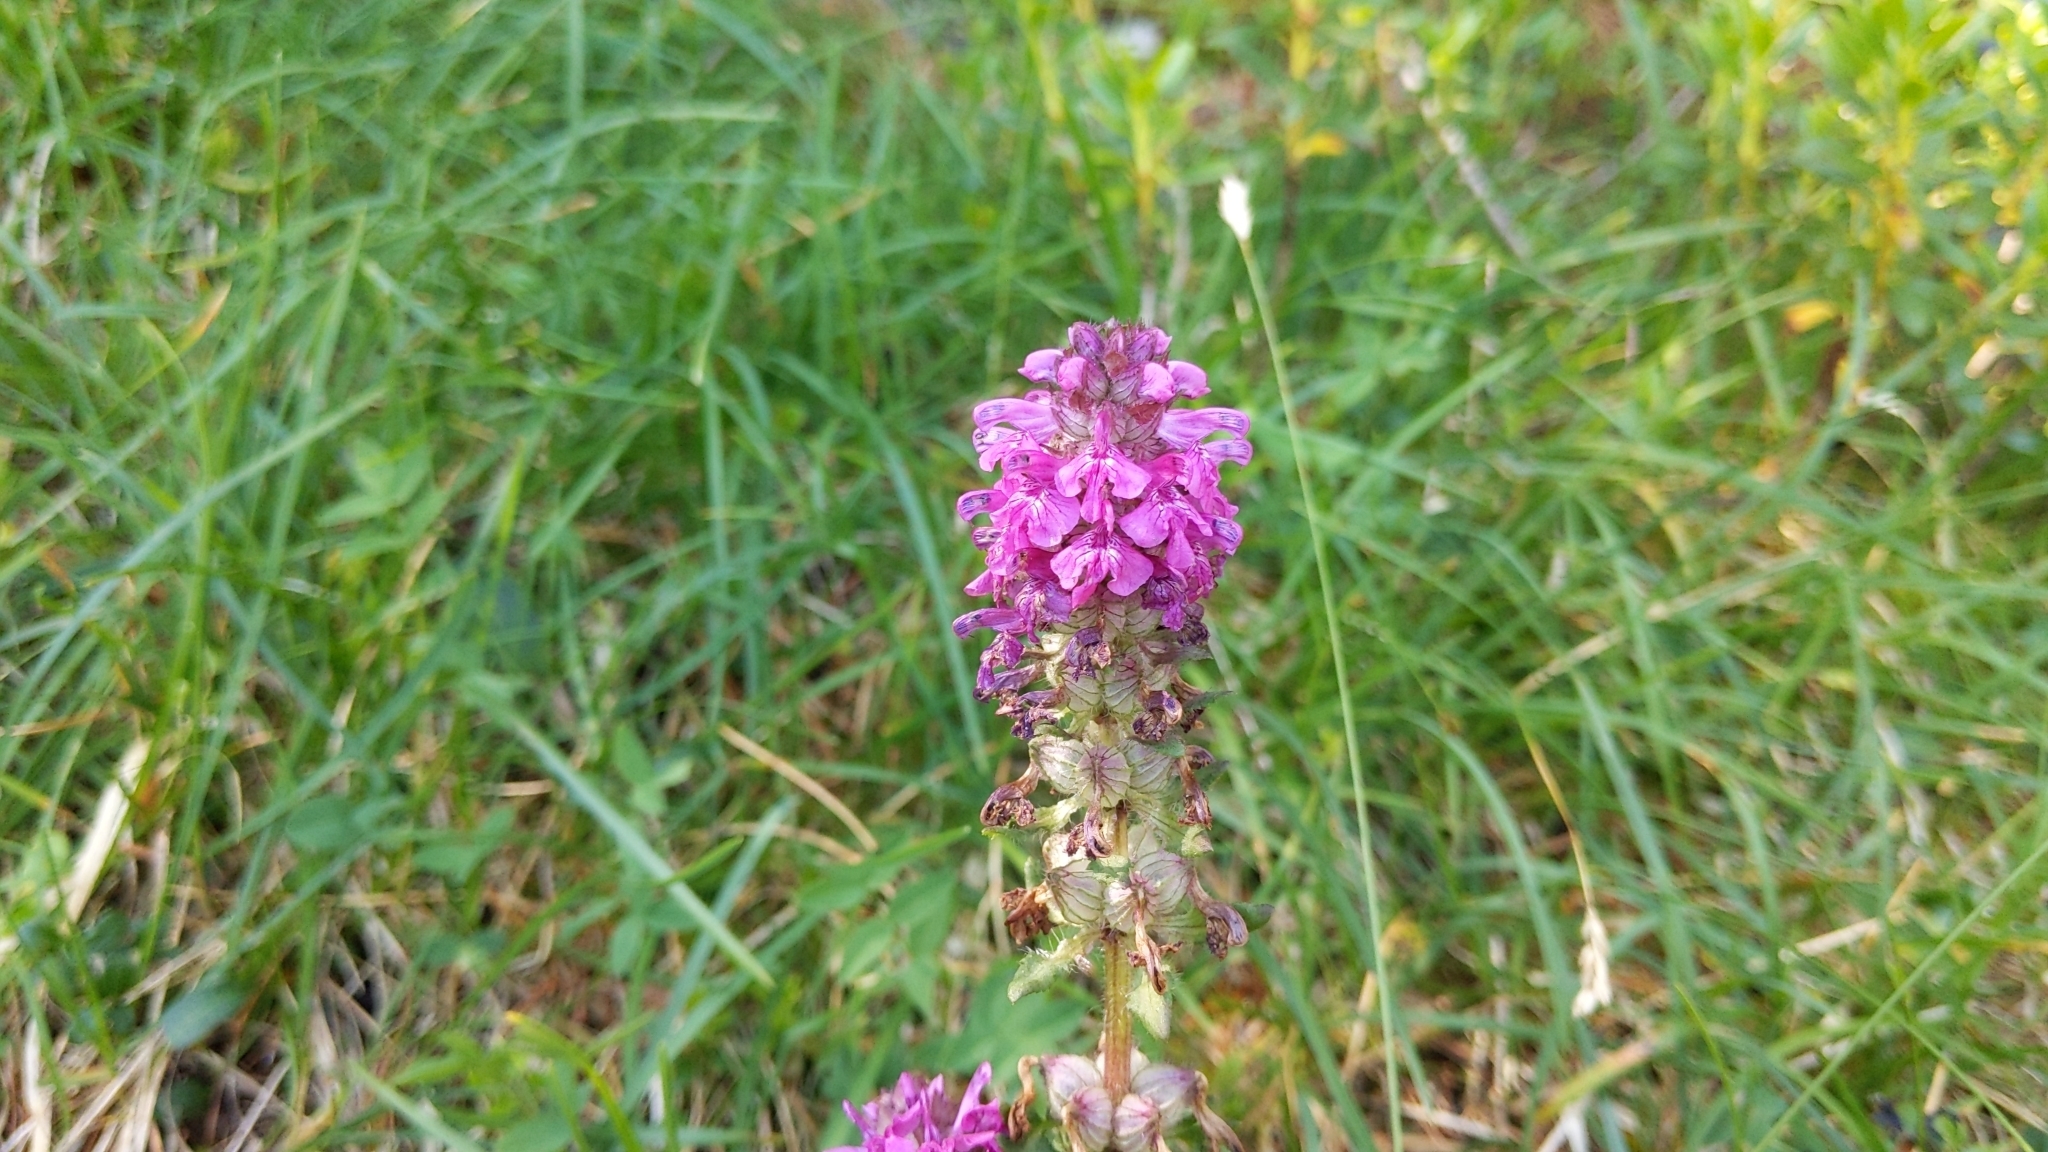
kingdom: Plantae
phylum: Tracheophyta
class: Magnoliopsida
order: Lamiales
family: Orobanchaceae
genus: Pedicularis
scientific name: Pedicularis verticillata
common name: Whorled lousewort
